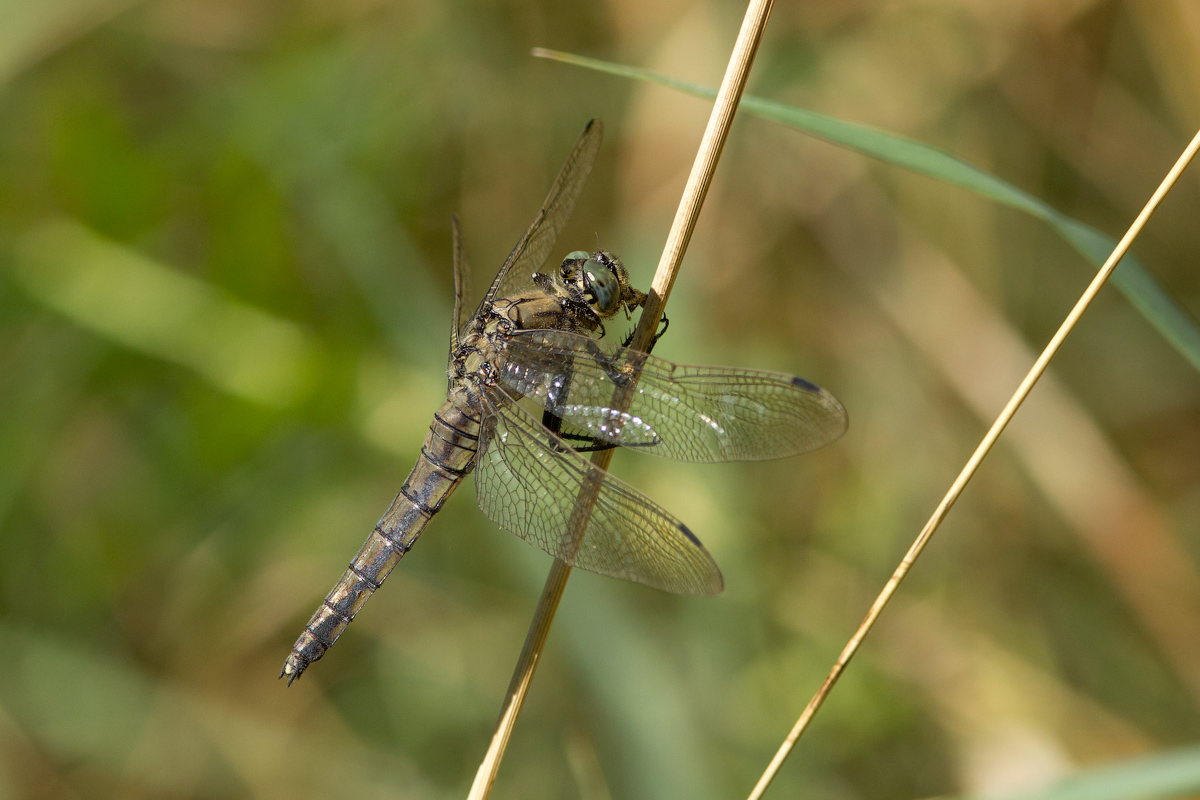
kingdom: Animalia
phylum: Arthropoda
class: Insecta
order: Odonata
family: Libellulidae
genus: Orthetrum
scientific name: Orthetrum cancellatum
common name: Black-tailed skimmer
